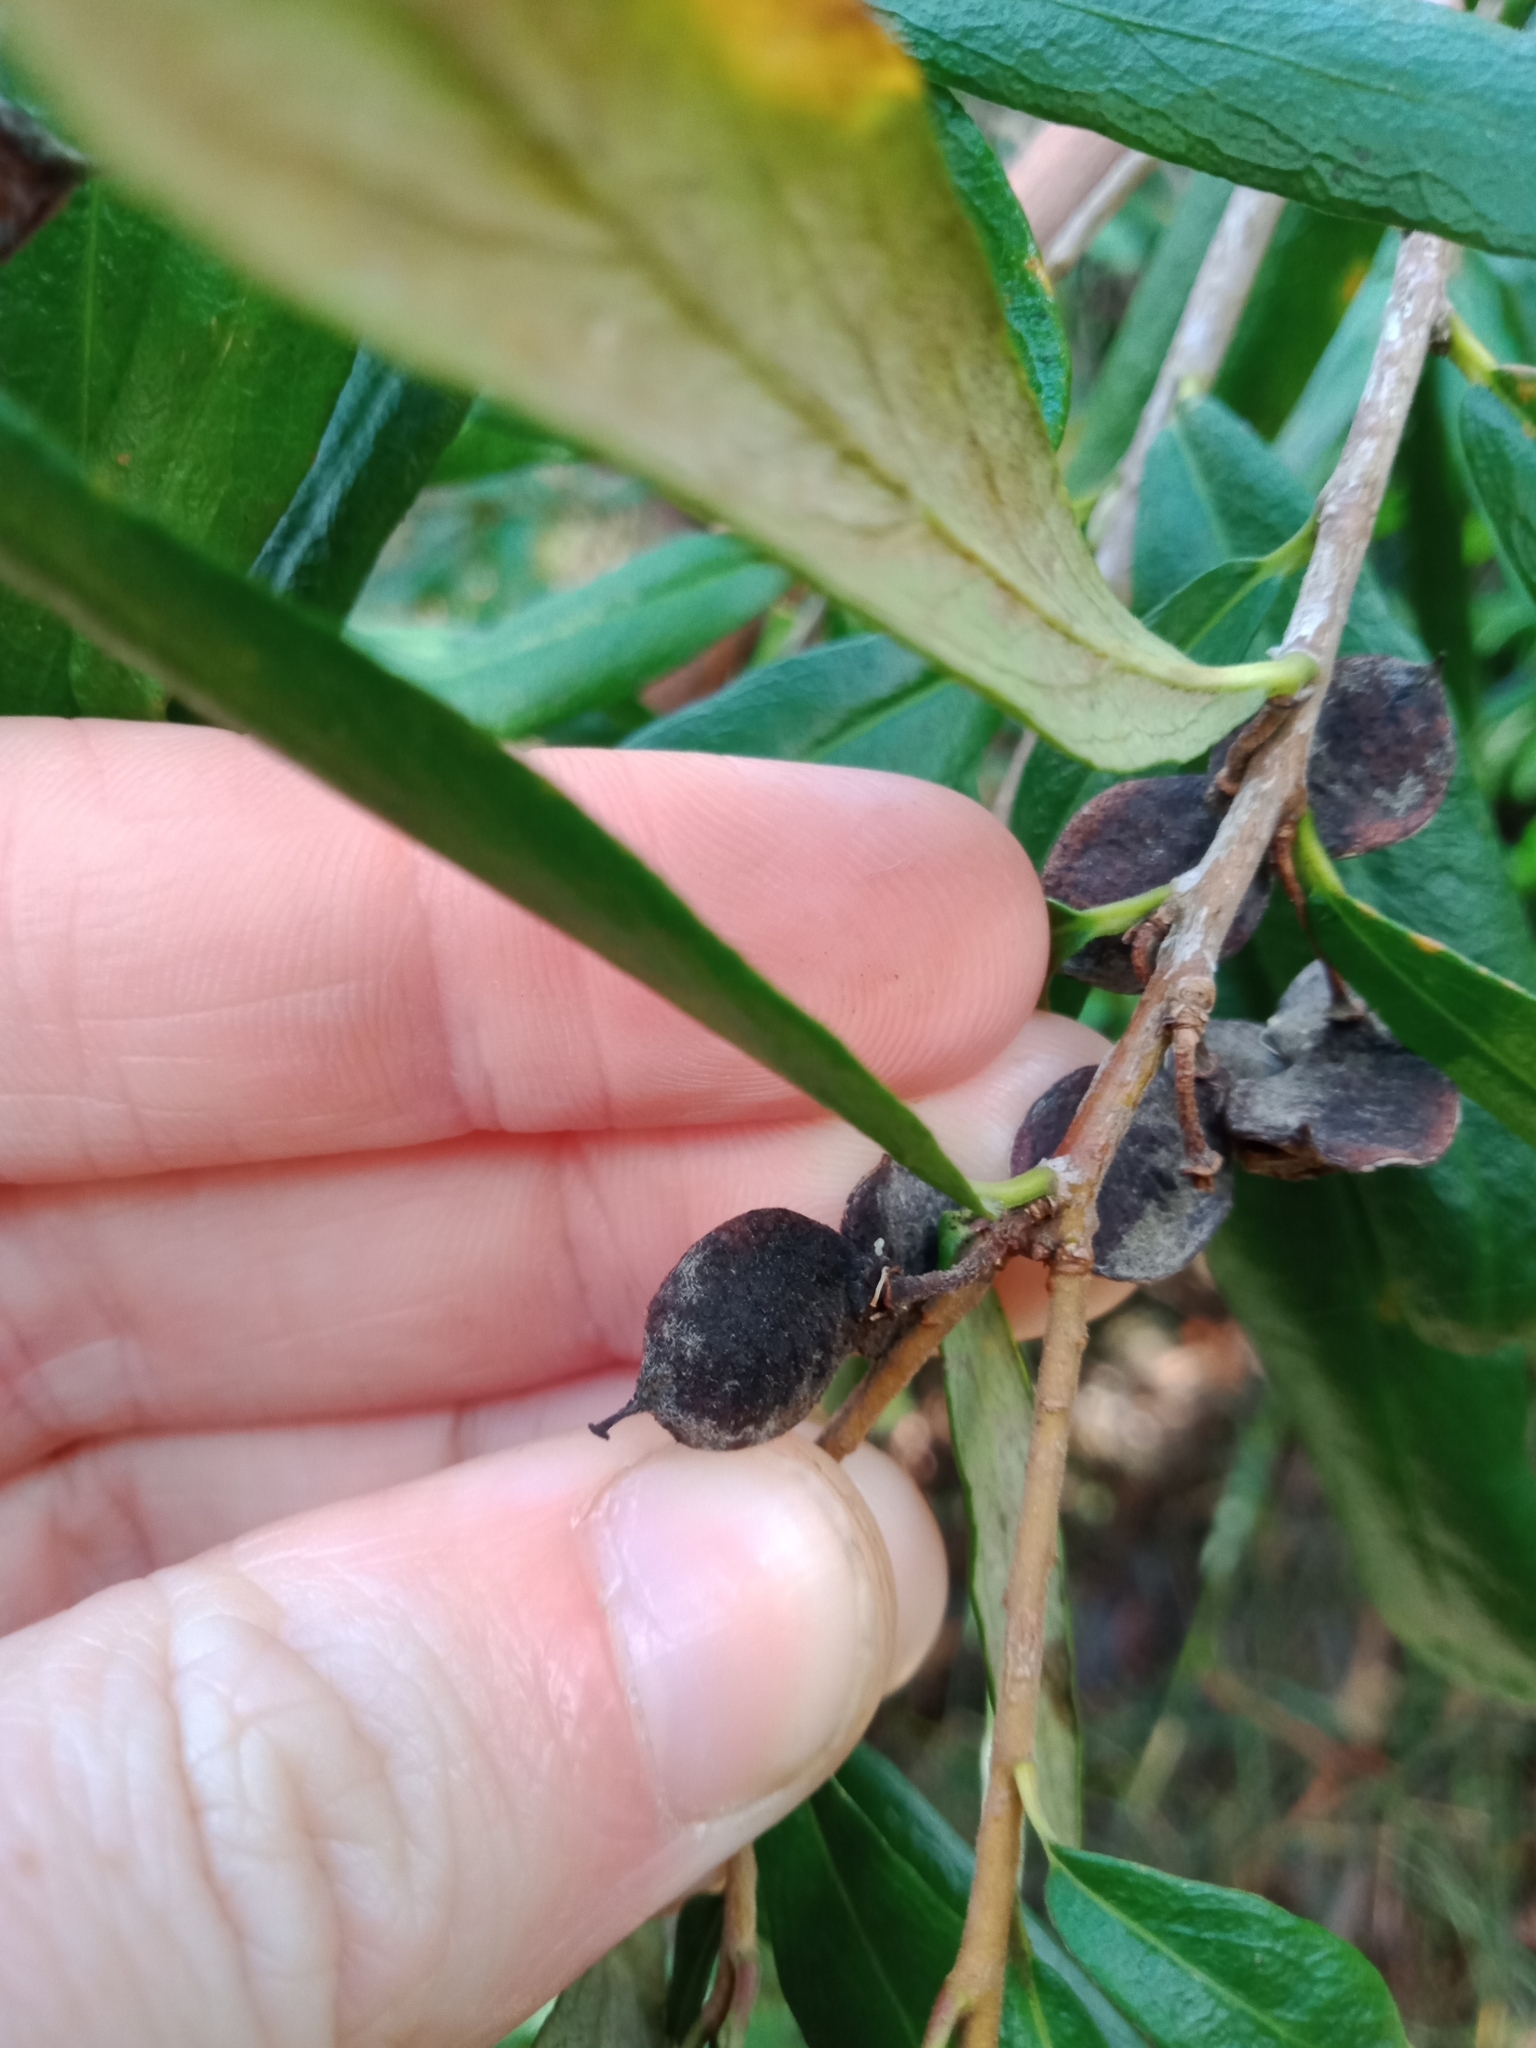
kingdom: Plantae
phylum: Tracheophyta
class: Magnoliopsida
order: Apiales
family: Pittosporaceae
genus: Pittosporum
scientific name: Pittosporum bicolor
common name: Tallowwood
